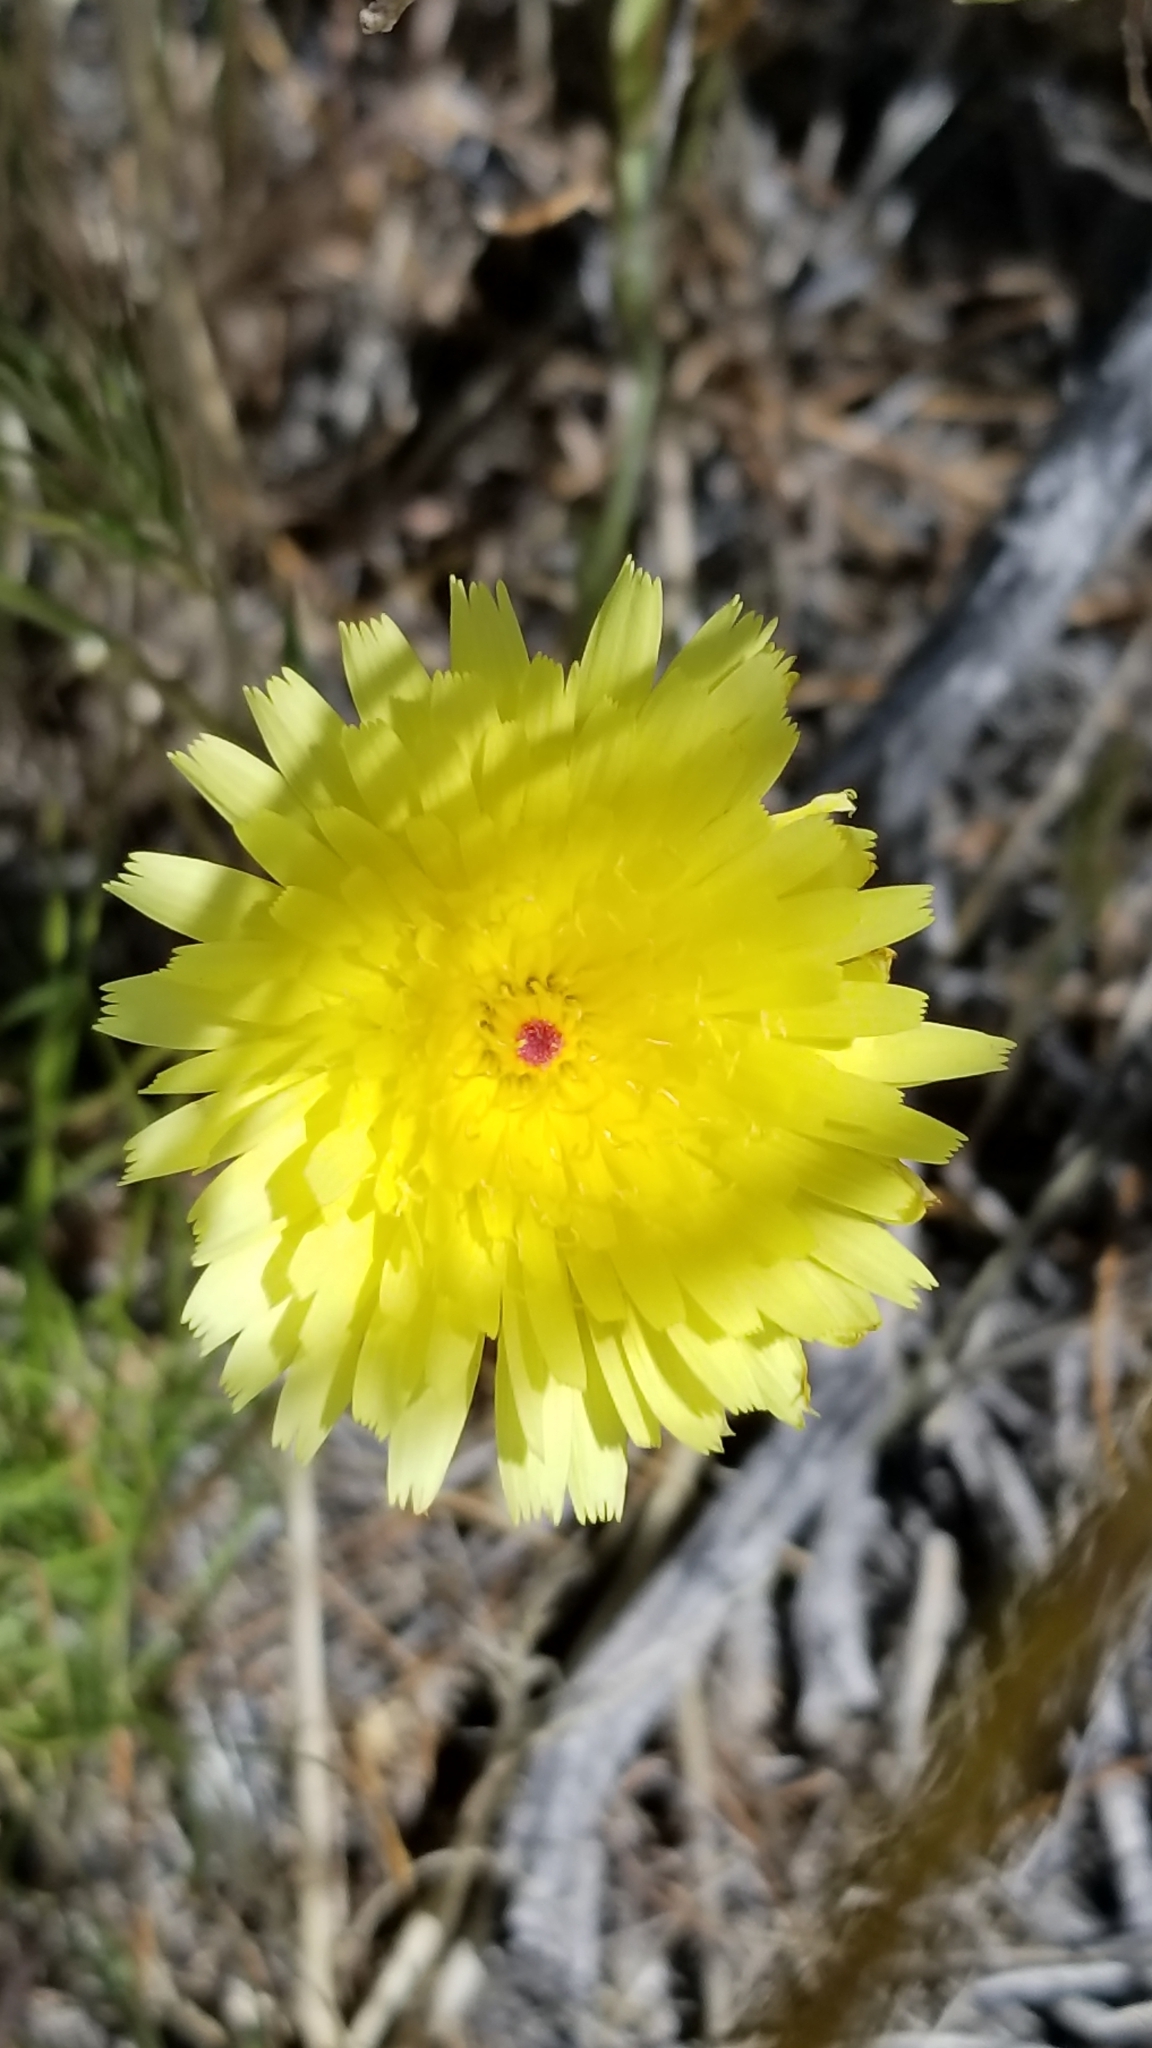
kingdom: Plantae
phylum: Tracheophyta
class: Magnoliopsida
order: Asterales
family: Asteraceae
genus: Malacothrix
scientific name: Malacothrix glabrata
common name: Smooth desert-dandelion
